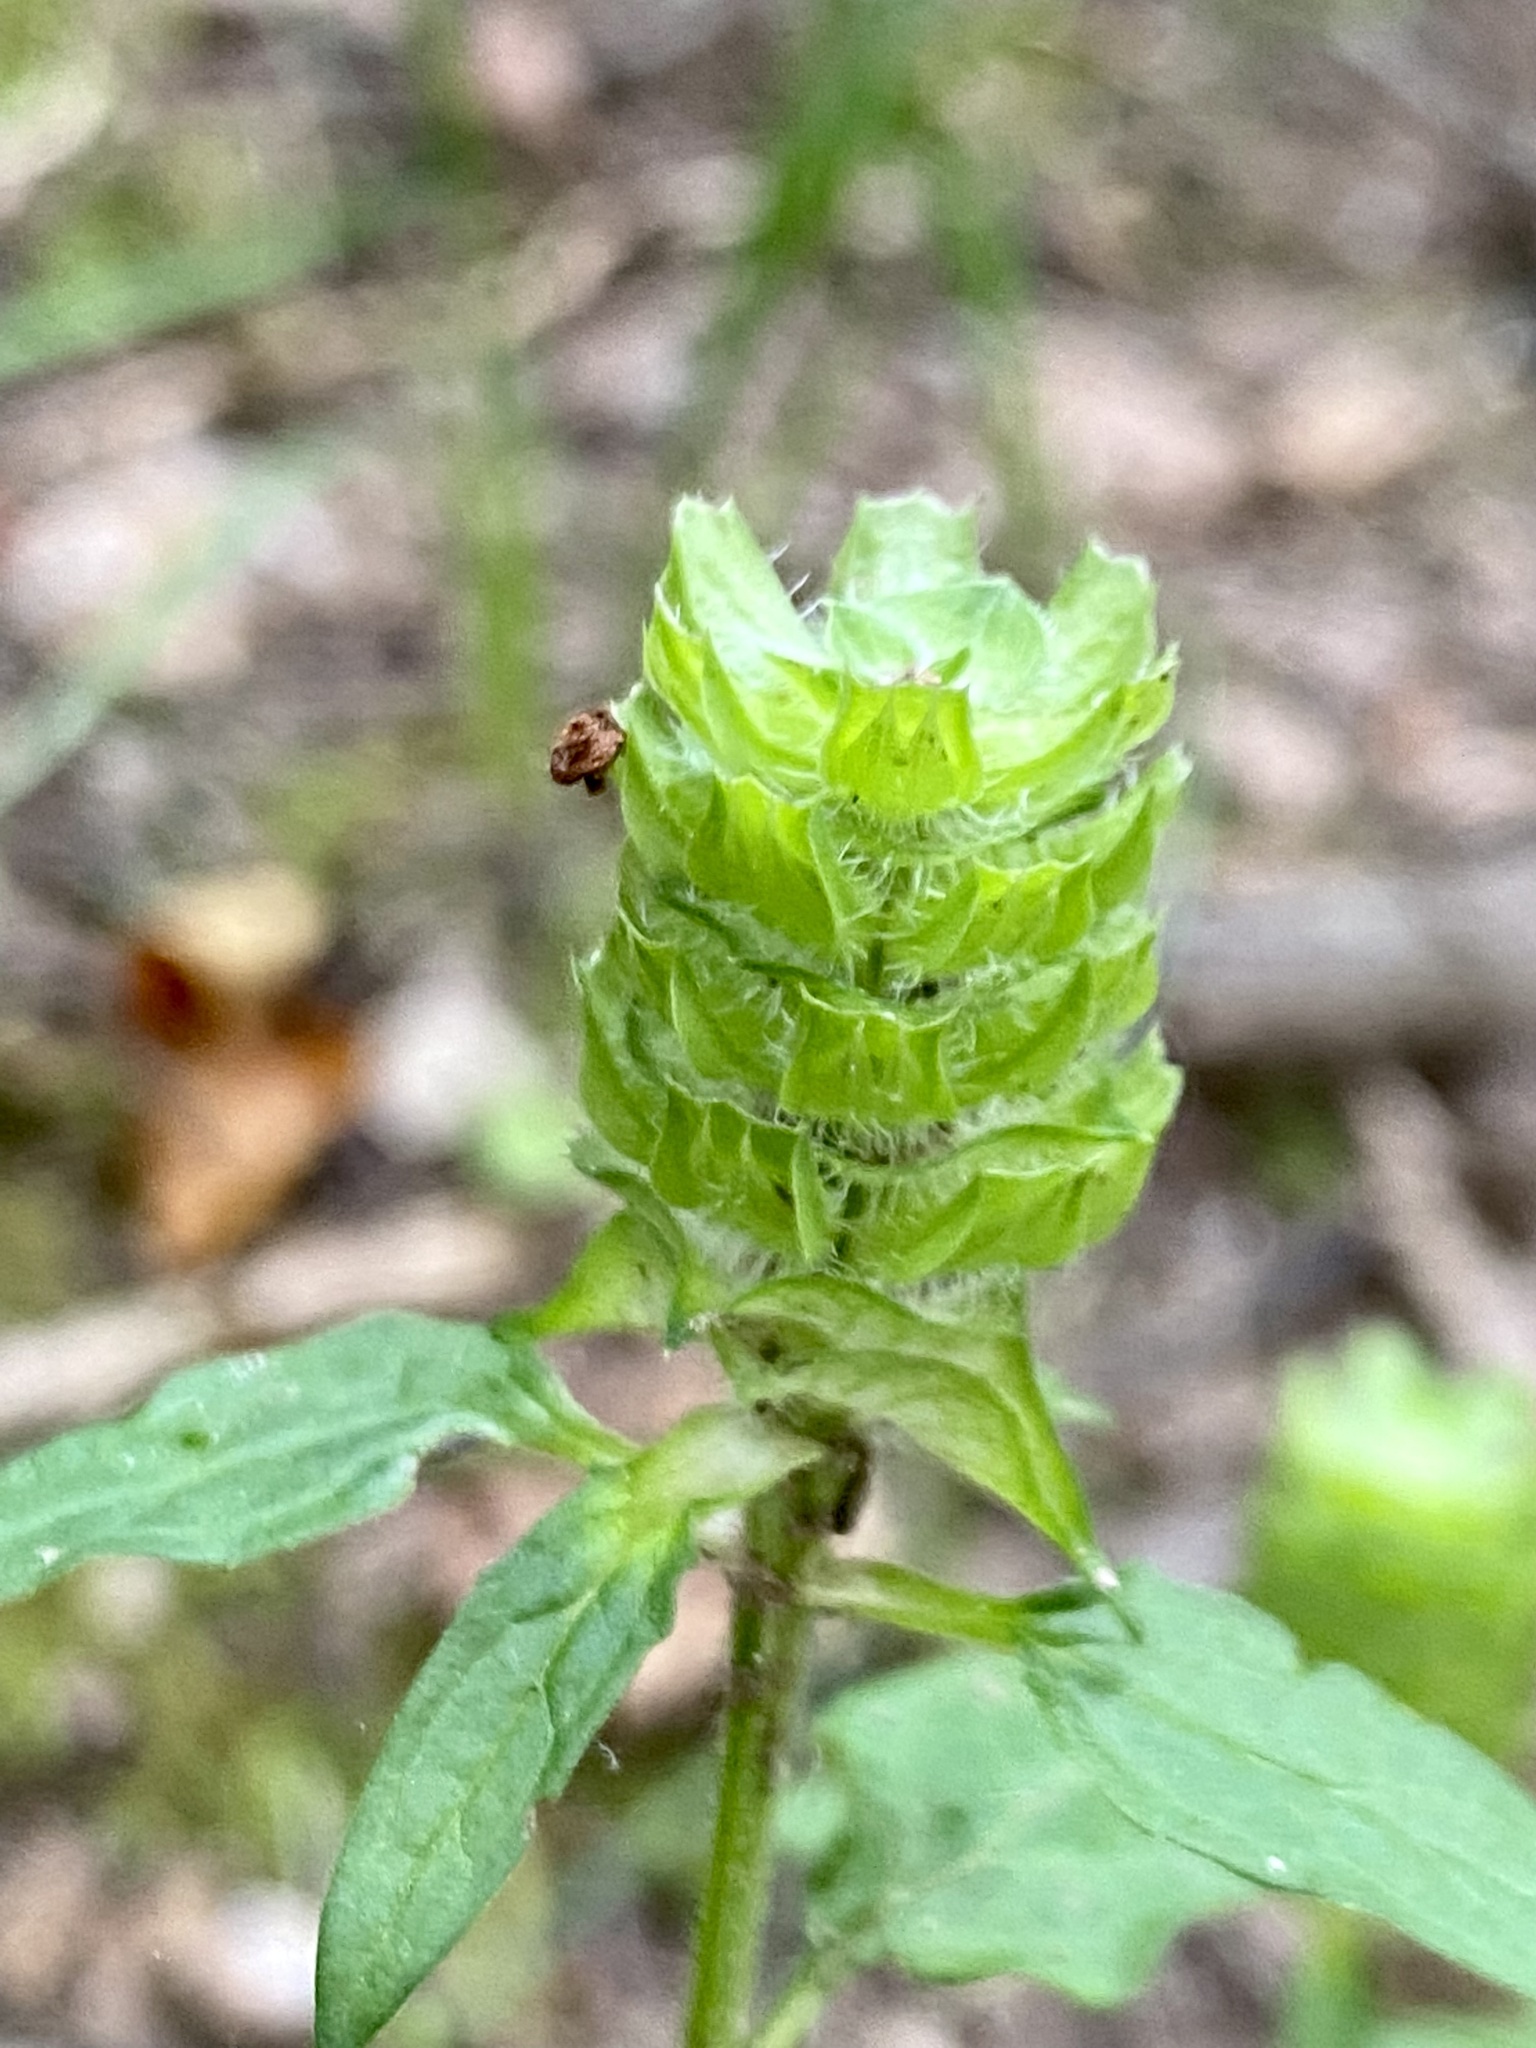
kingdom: Plantae
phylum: Tracheophyta
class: Magnoliopsida
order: Lamiales
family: Lamiaceae
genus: Prunella
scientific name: Prunella vulgaris
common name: Heal-all
